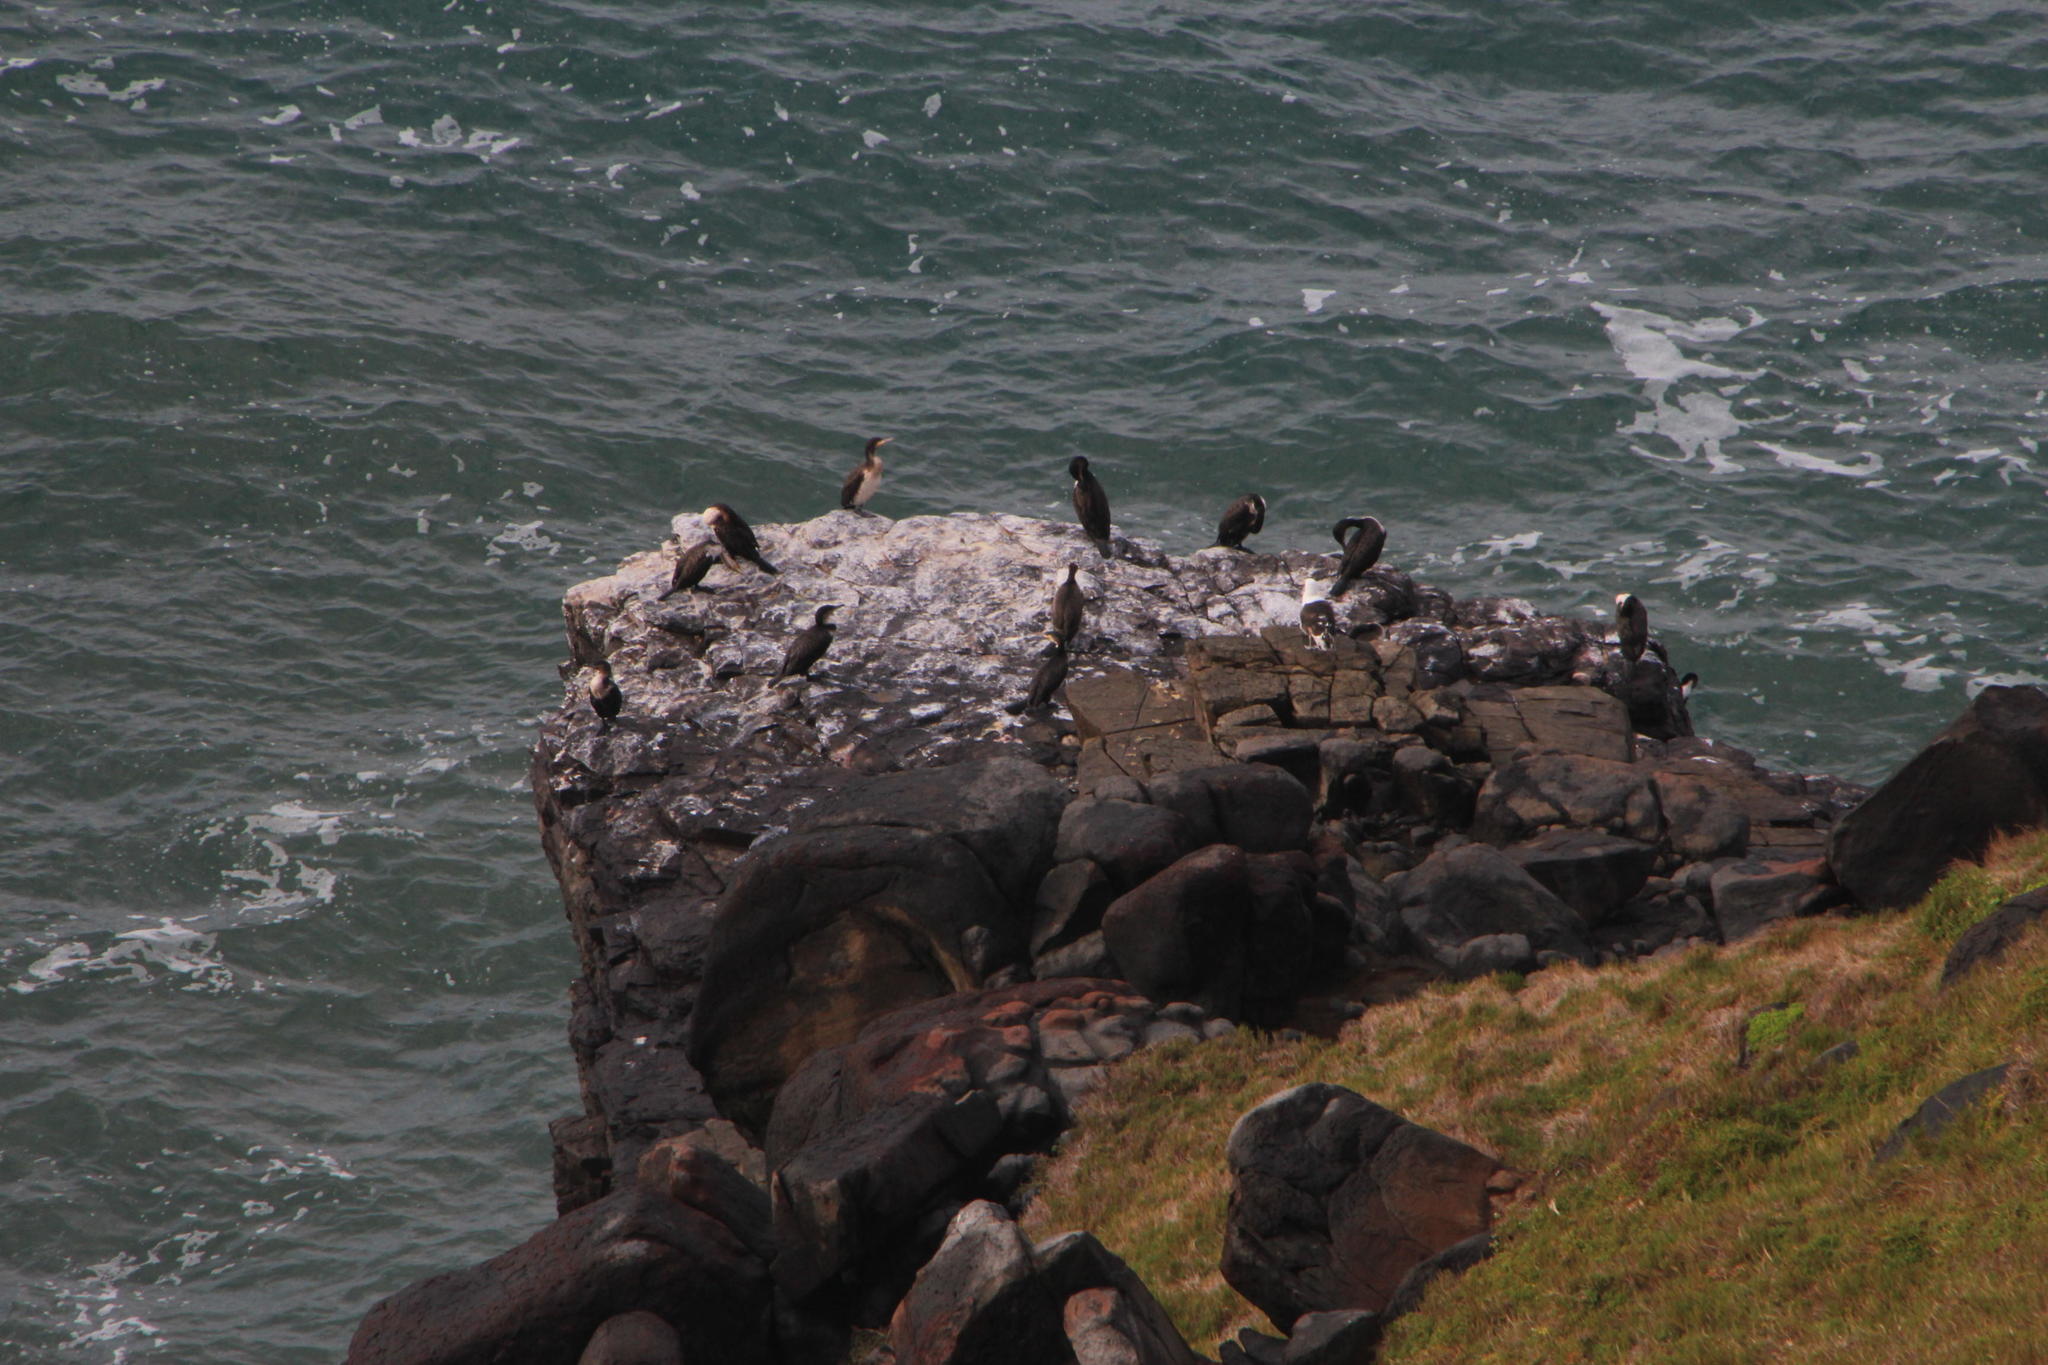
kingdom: Animalia
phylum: Chordata
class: Aves
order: Suliformes
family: Phalacrocoracidae
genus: Phalacrocorax
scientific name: Phalacrocorax carbo
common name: Great cormorant
